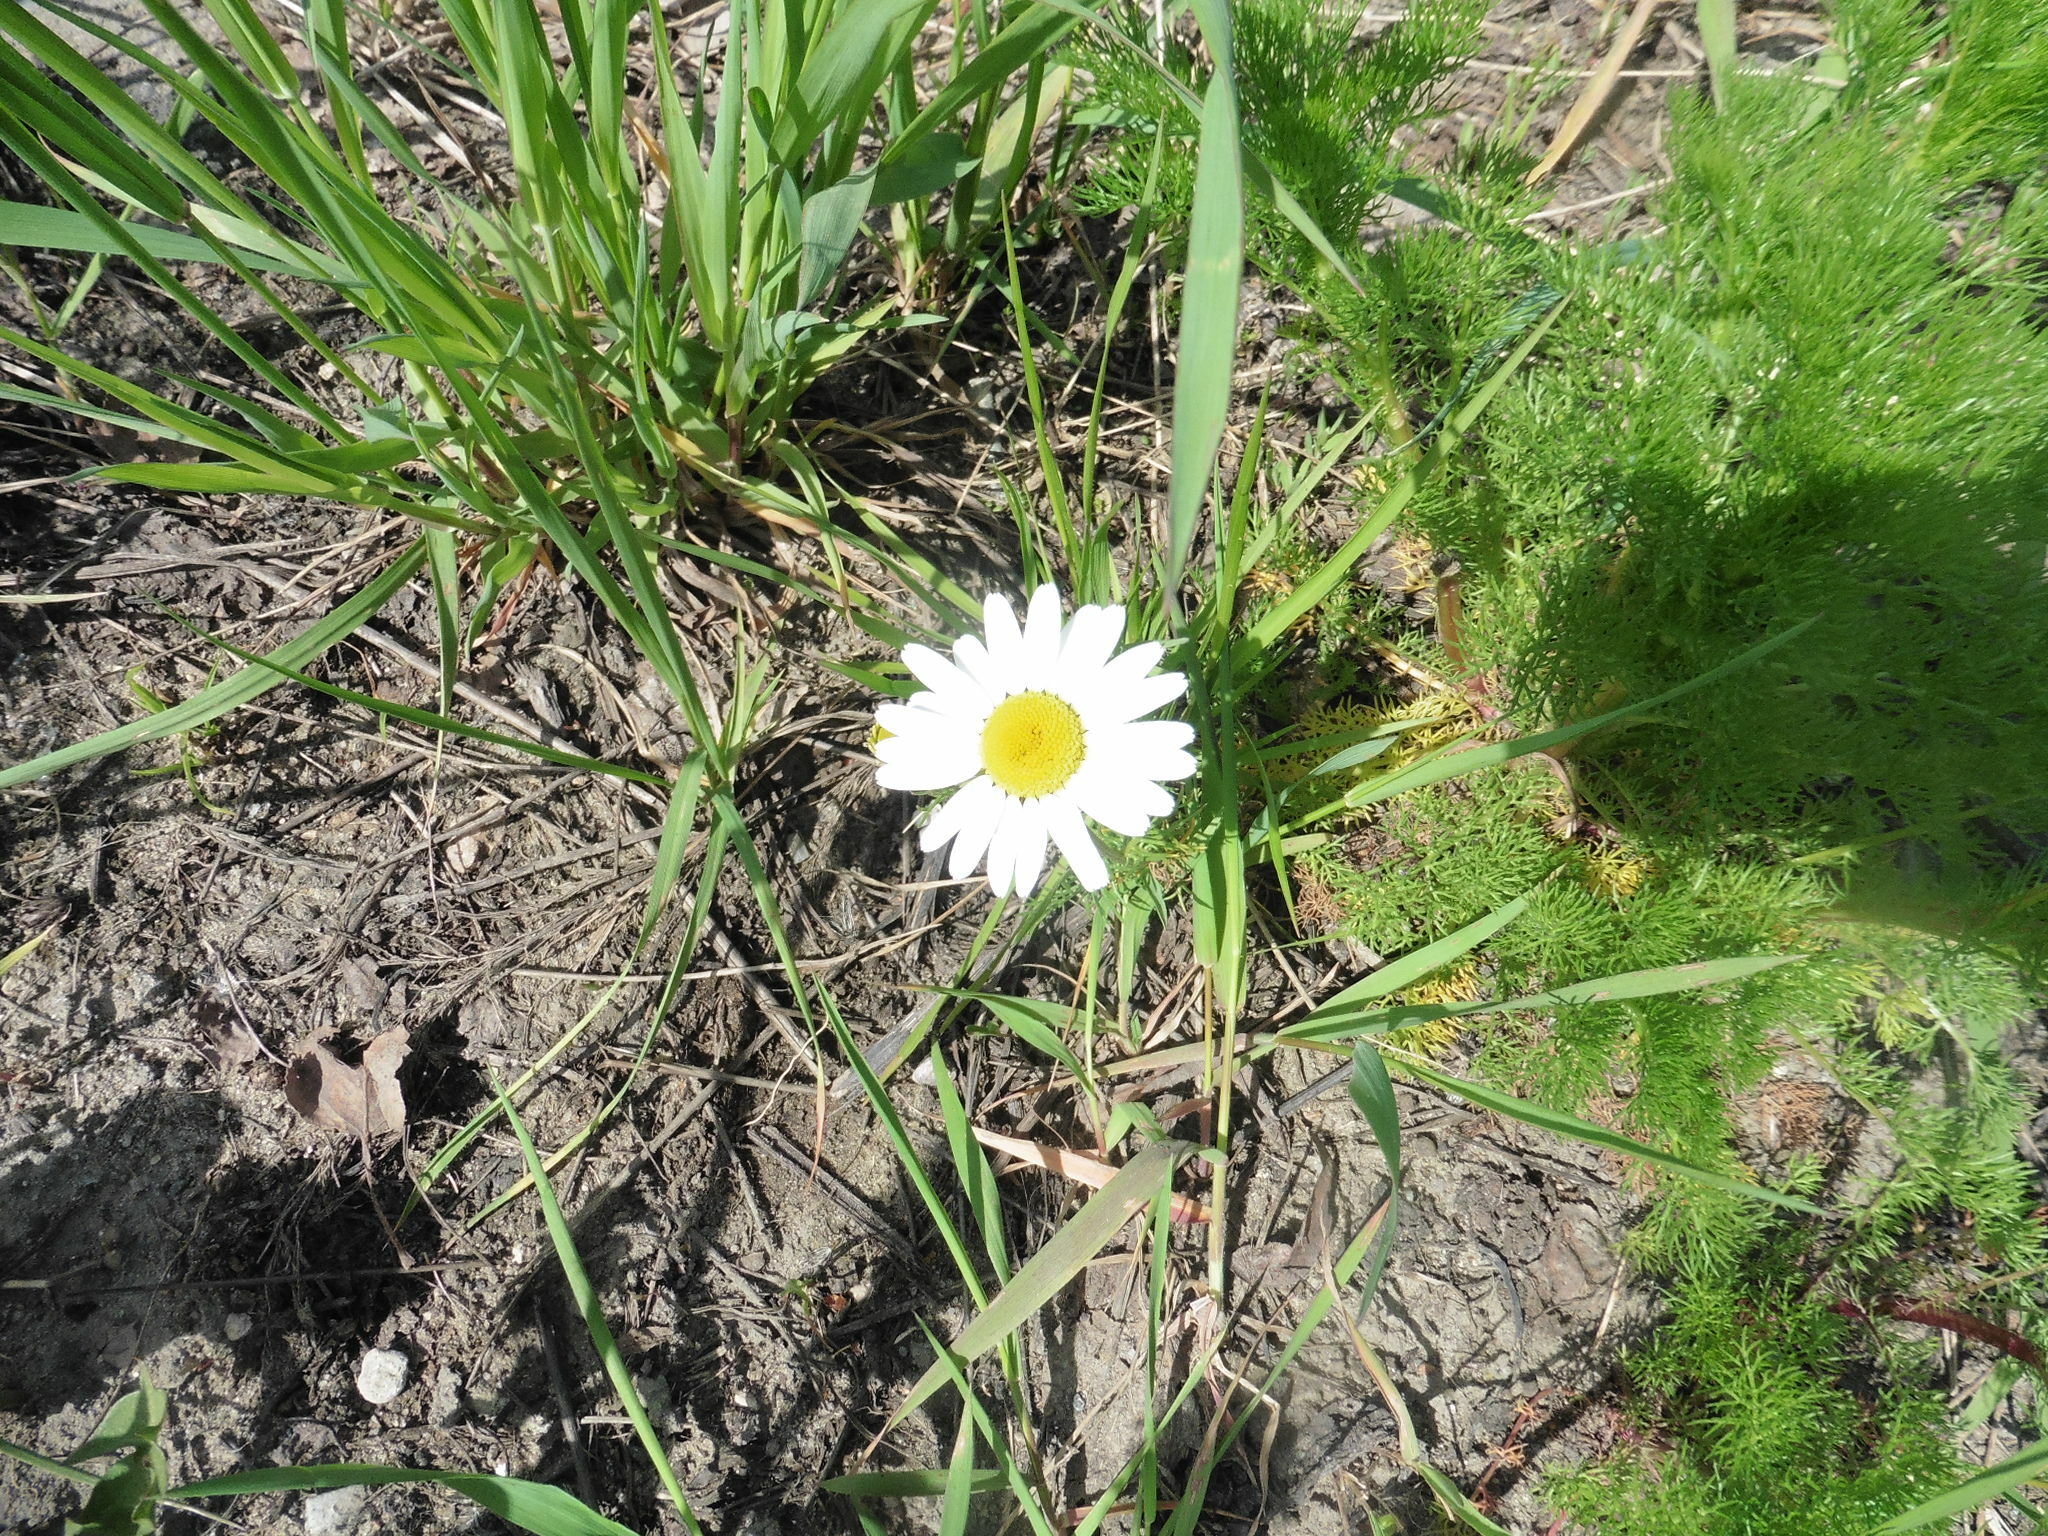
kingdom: Plantae
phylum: Tracheophyta
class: Magnoliopsida
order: Asterales
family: Asteraceae
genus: Tripleurospermum
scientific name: Tripleurospermum inodorum
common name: Scentless mayweed
